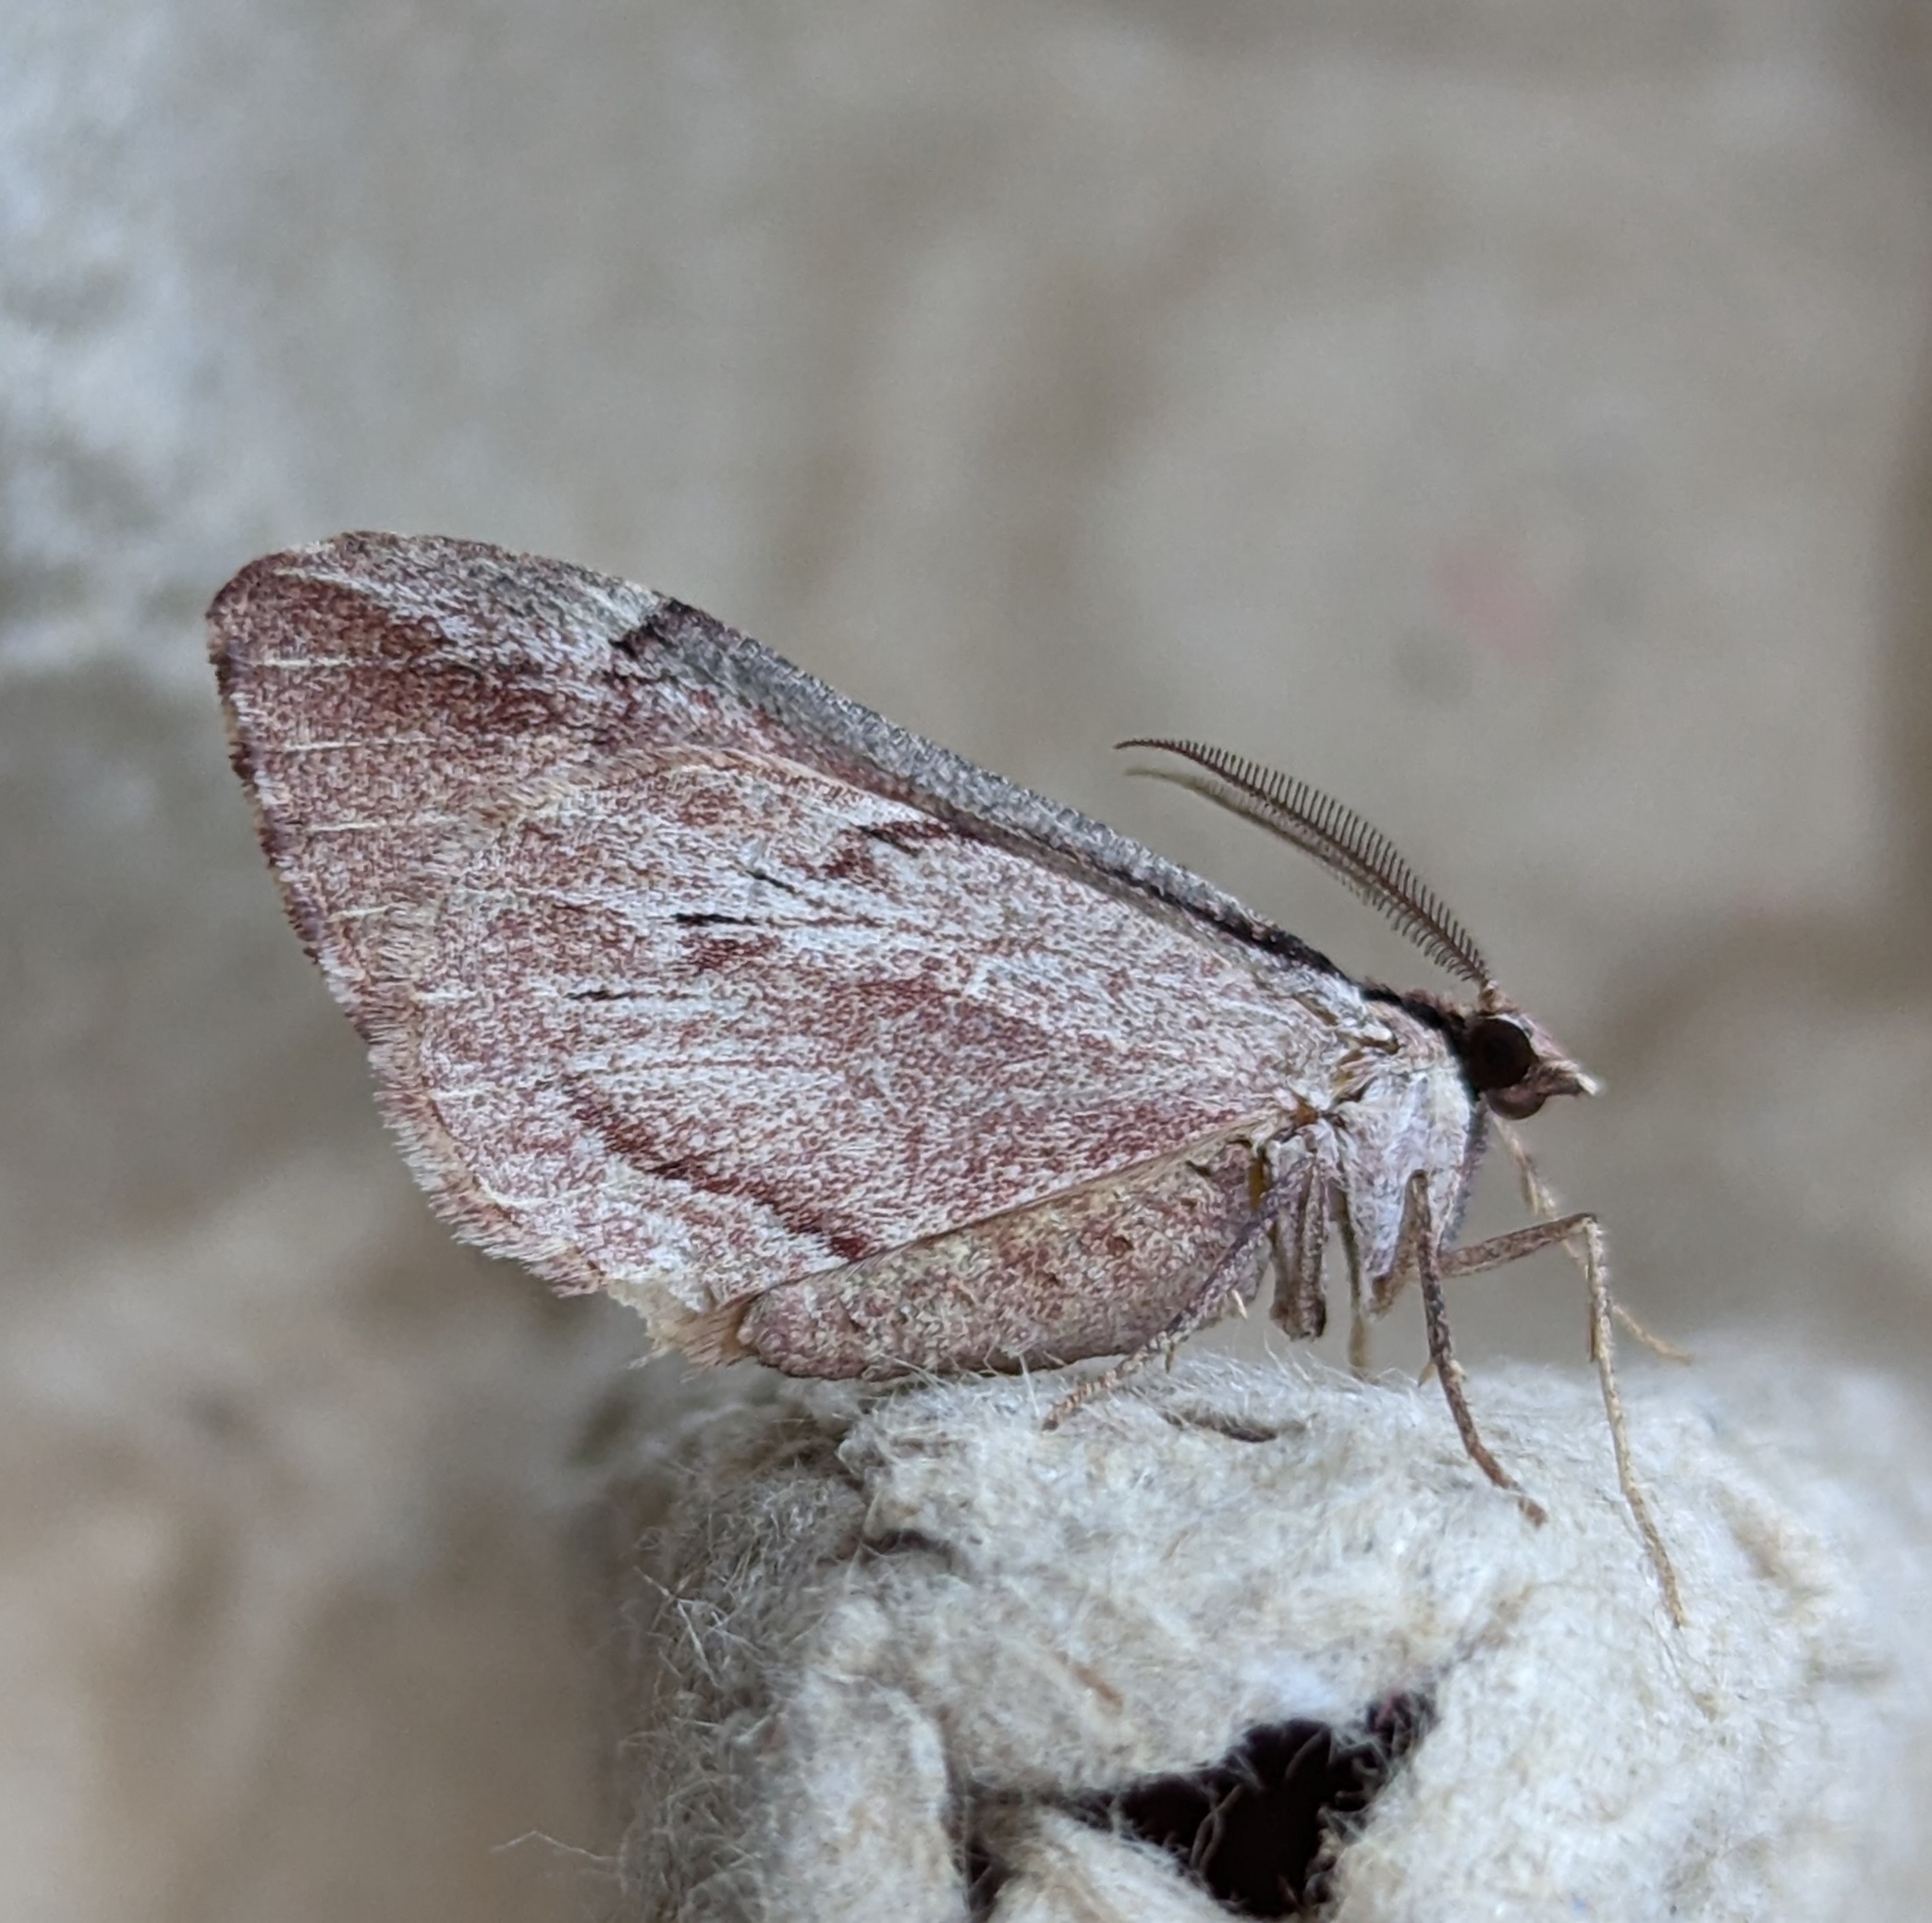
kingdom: Animalia
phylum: Arthropoda
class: Insecta
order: Lepidoptera
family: Geometridae
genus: Stamnoctenis
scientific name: Stamnoctenis pearsalli
